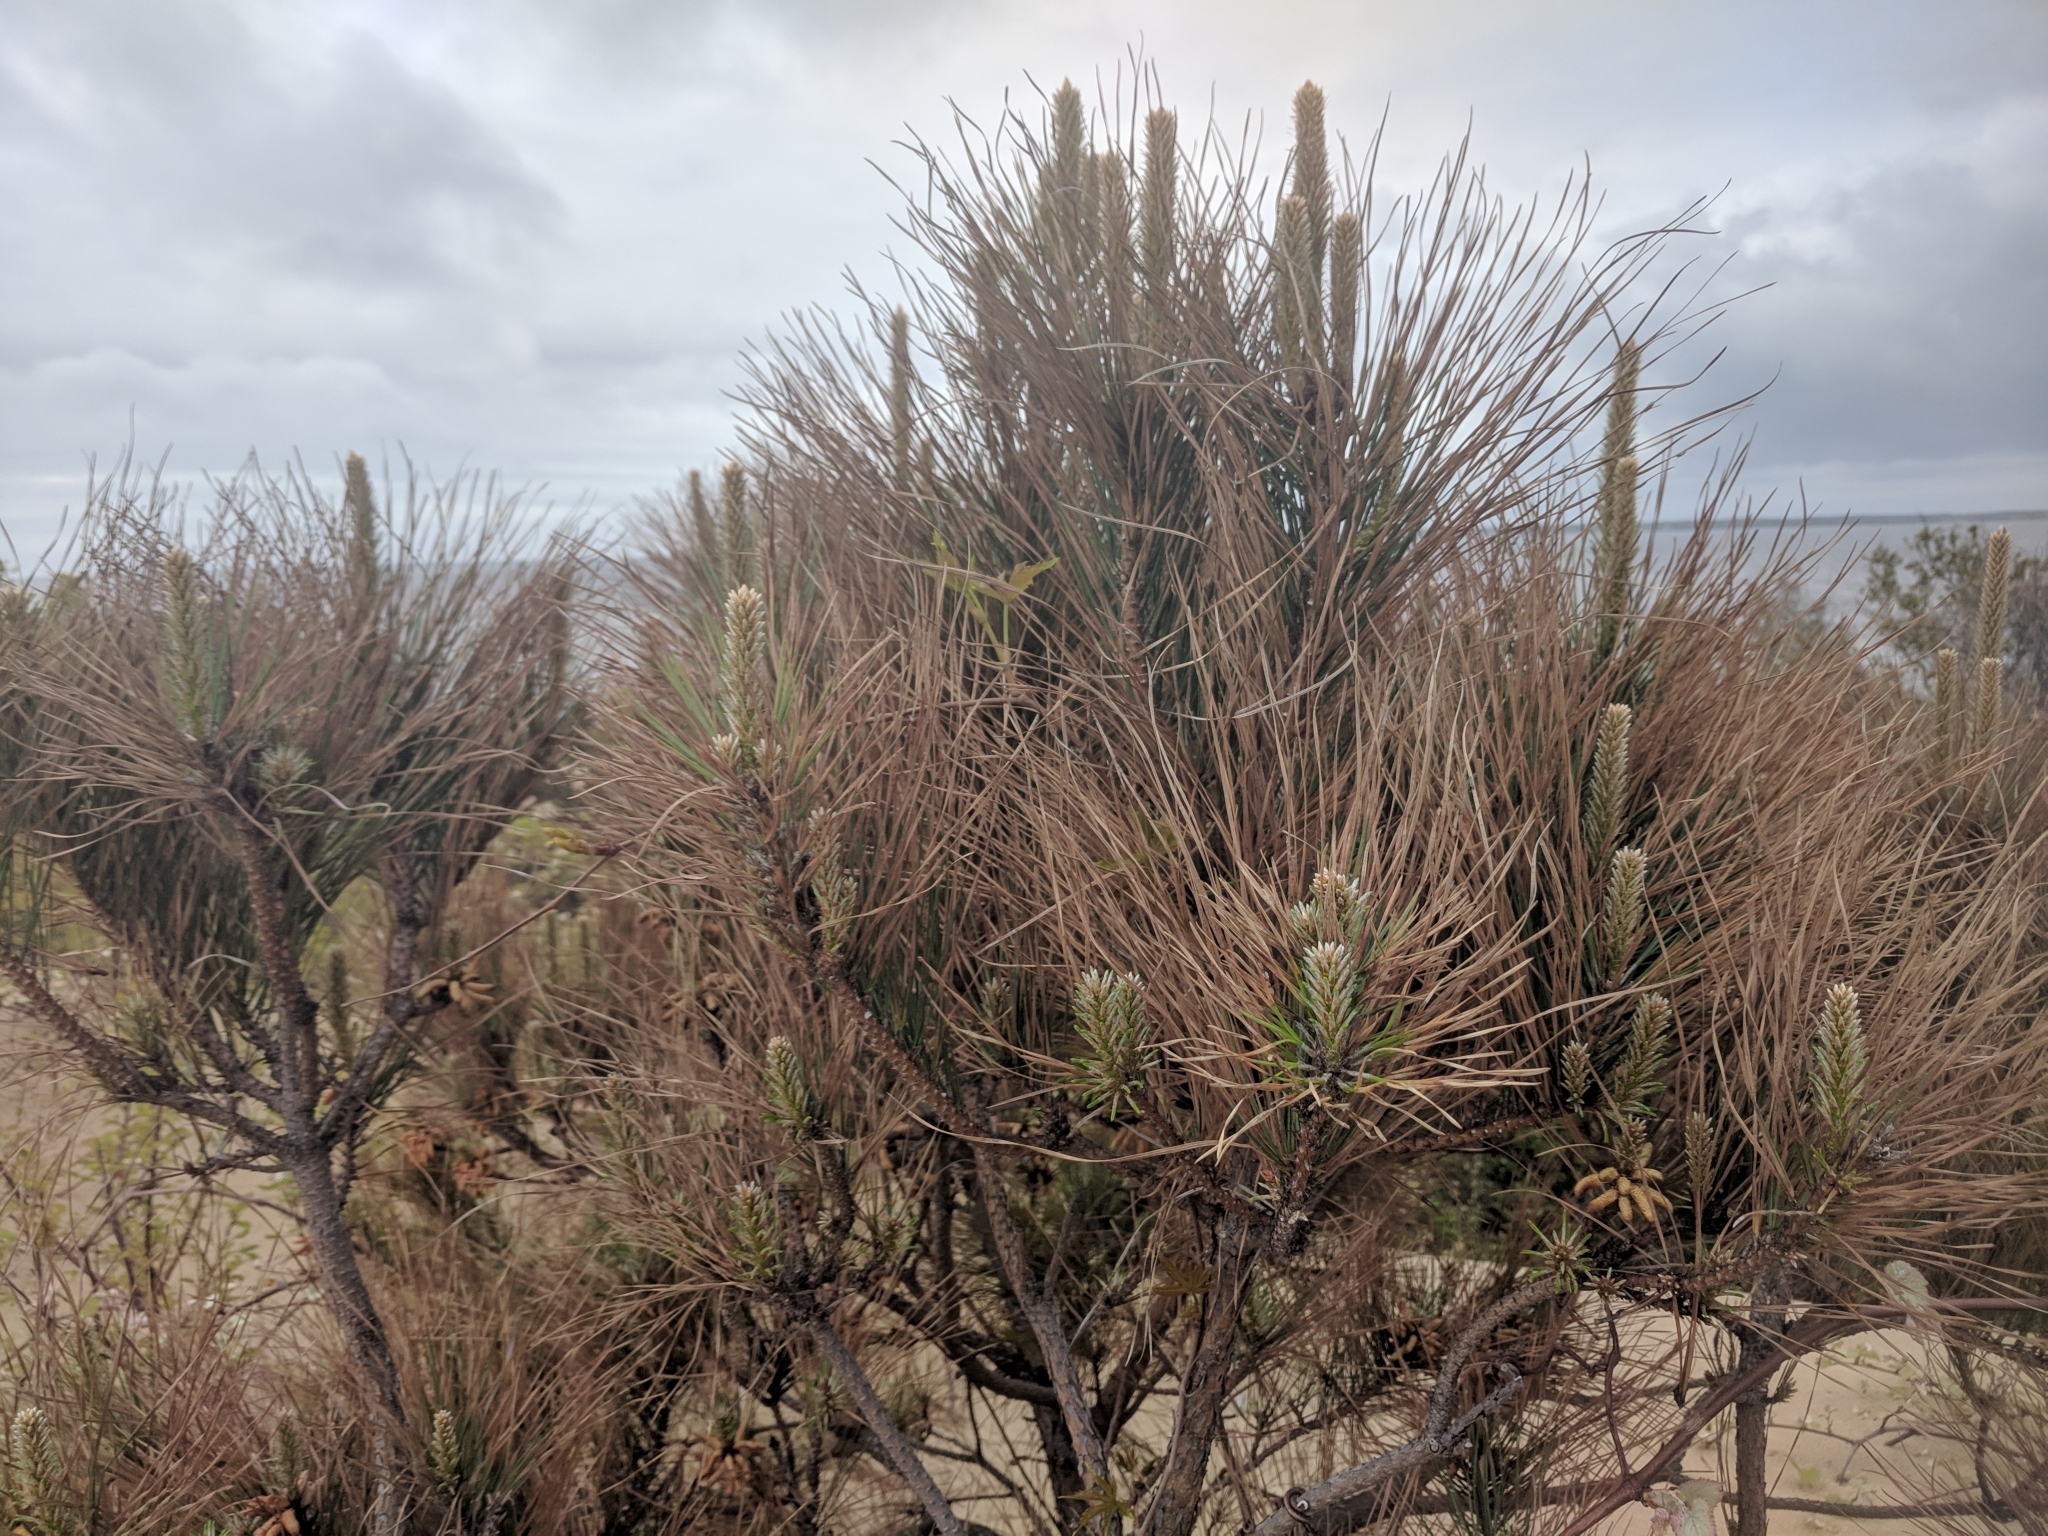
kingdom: Plantae
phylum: Tracheophyta
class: Pinopsida
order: Pinales
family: Pinaceae
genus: Pinus
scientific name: Pinus taeda
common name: Loblolly pine
